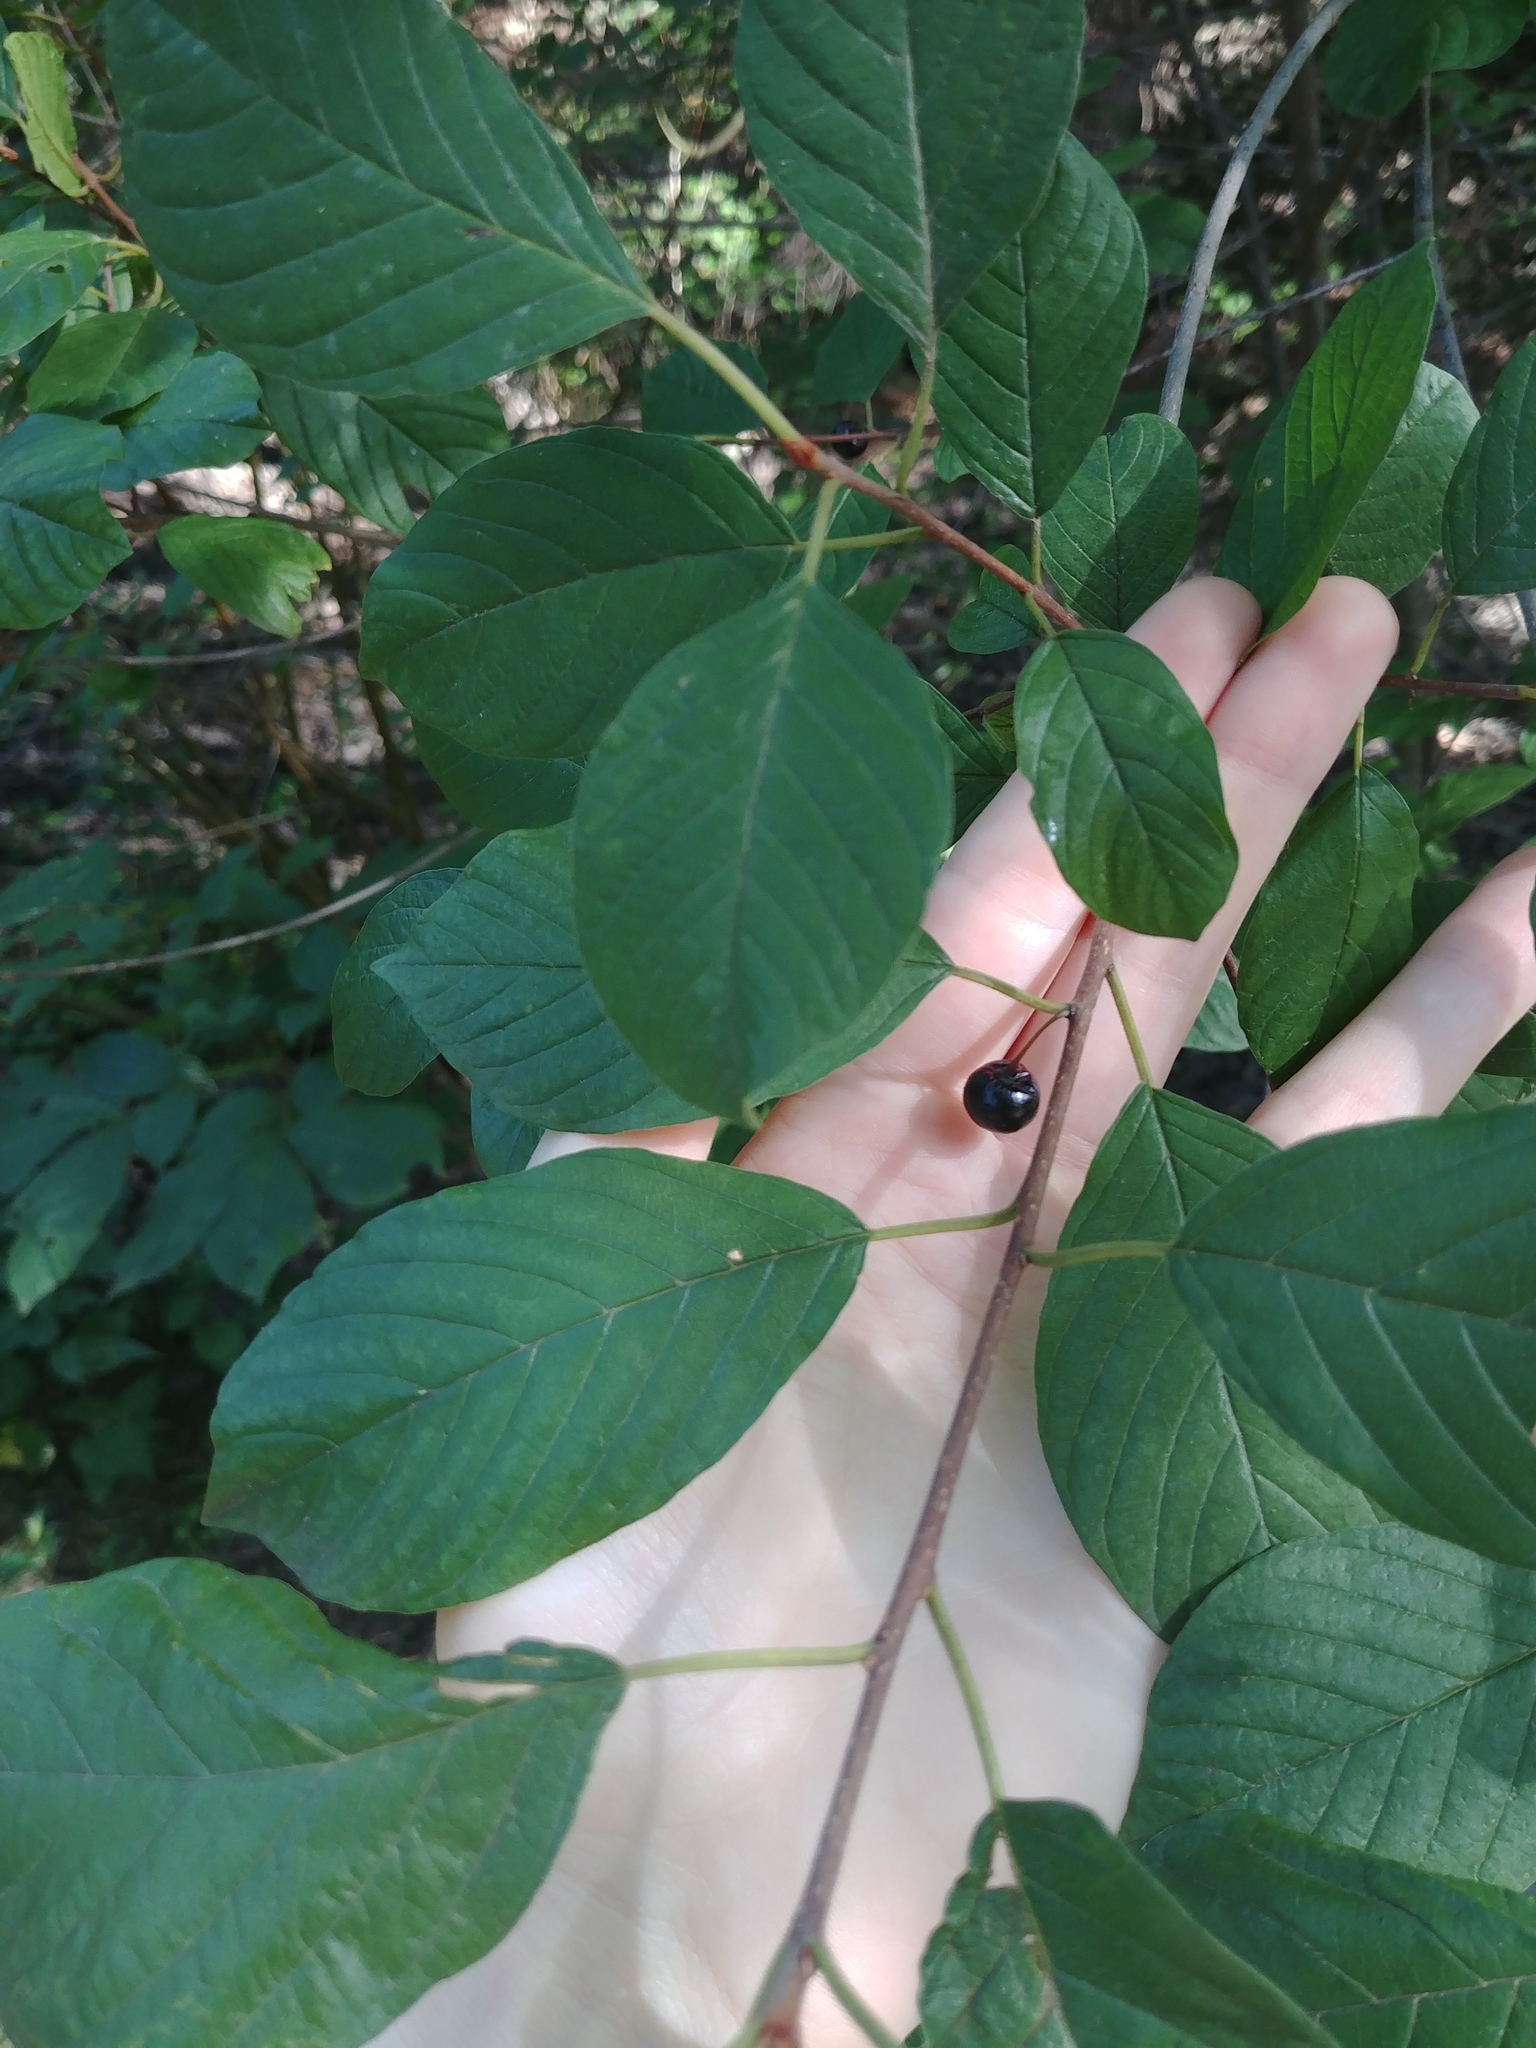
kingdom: Plantae
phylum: Tracheophyta
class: Magnoliopsida
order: Rosales
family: Rhamnaceae
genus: Frangula
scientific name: Frangula alnus
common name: Alder buckthorn
